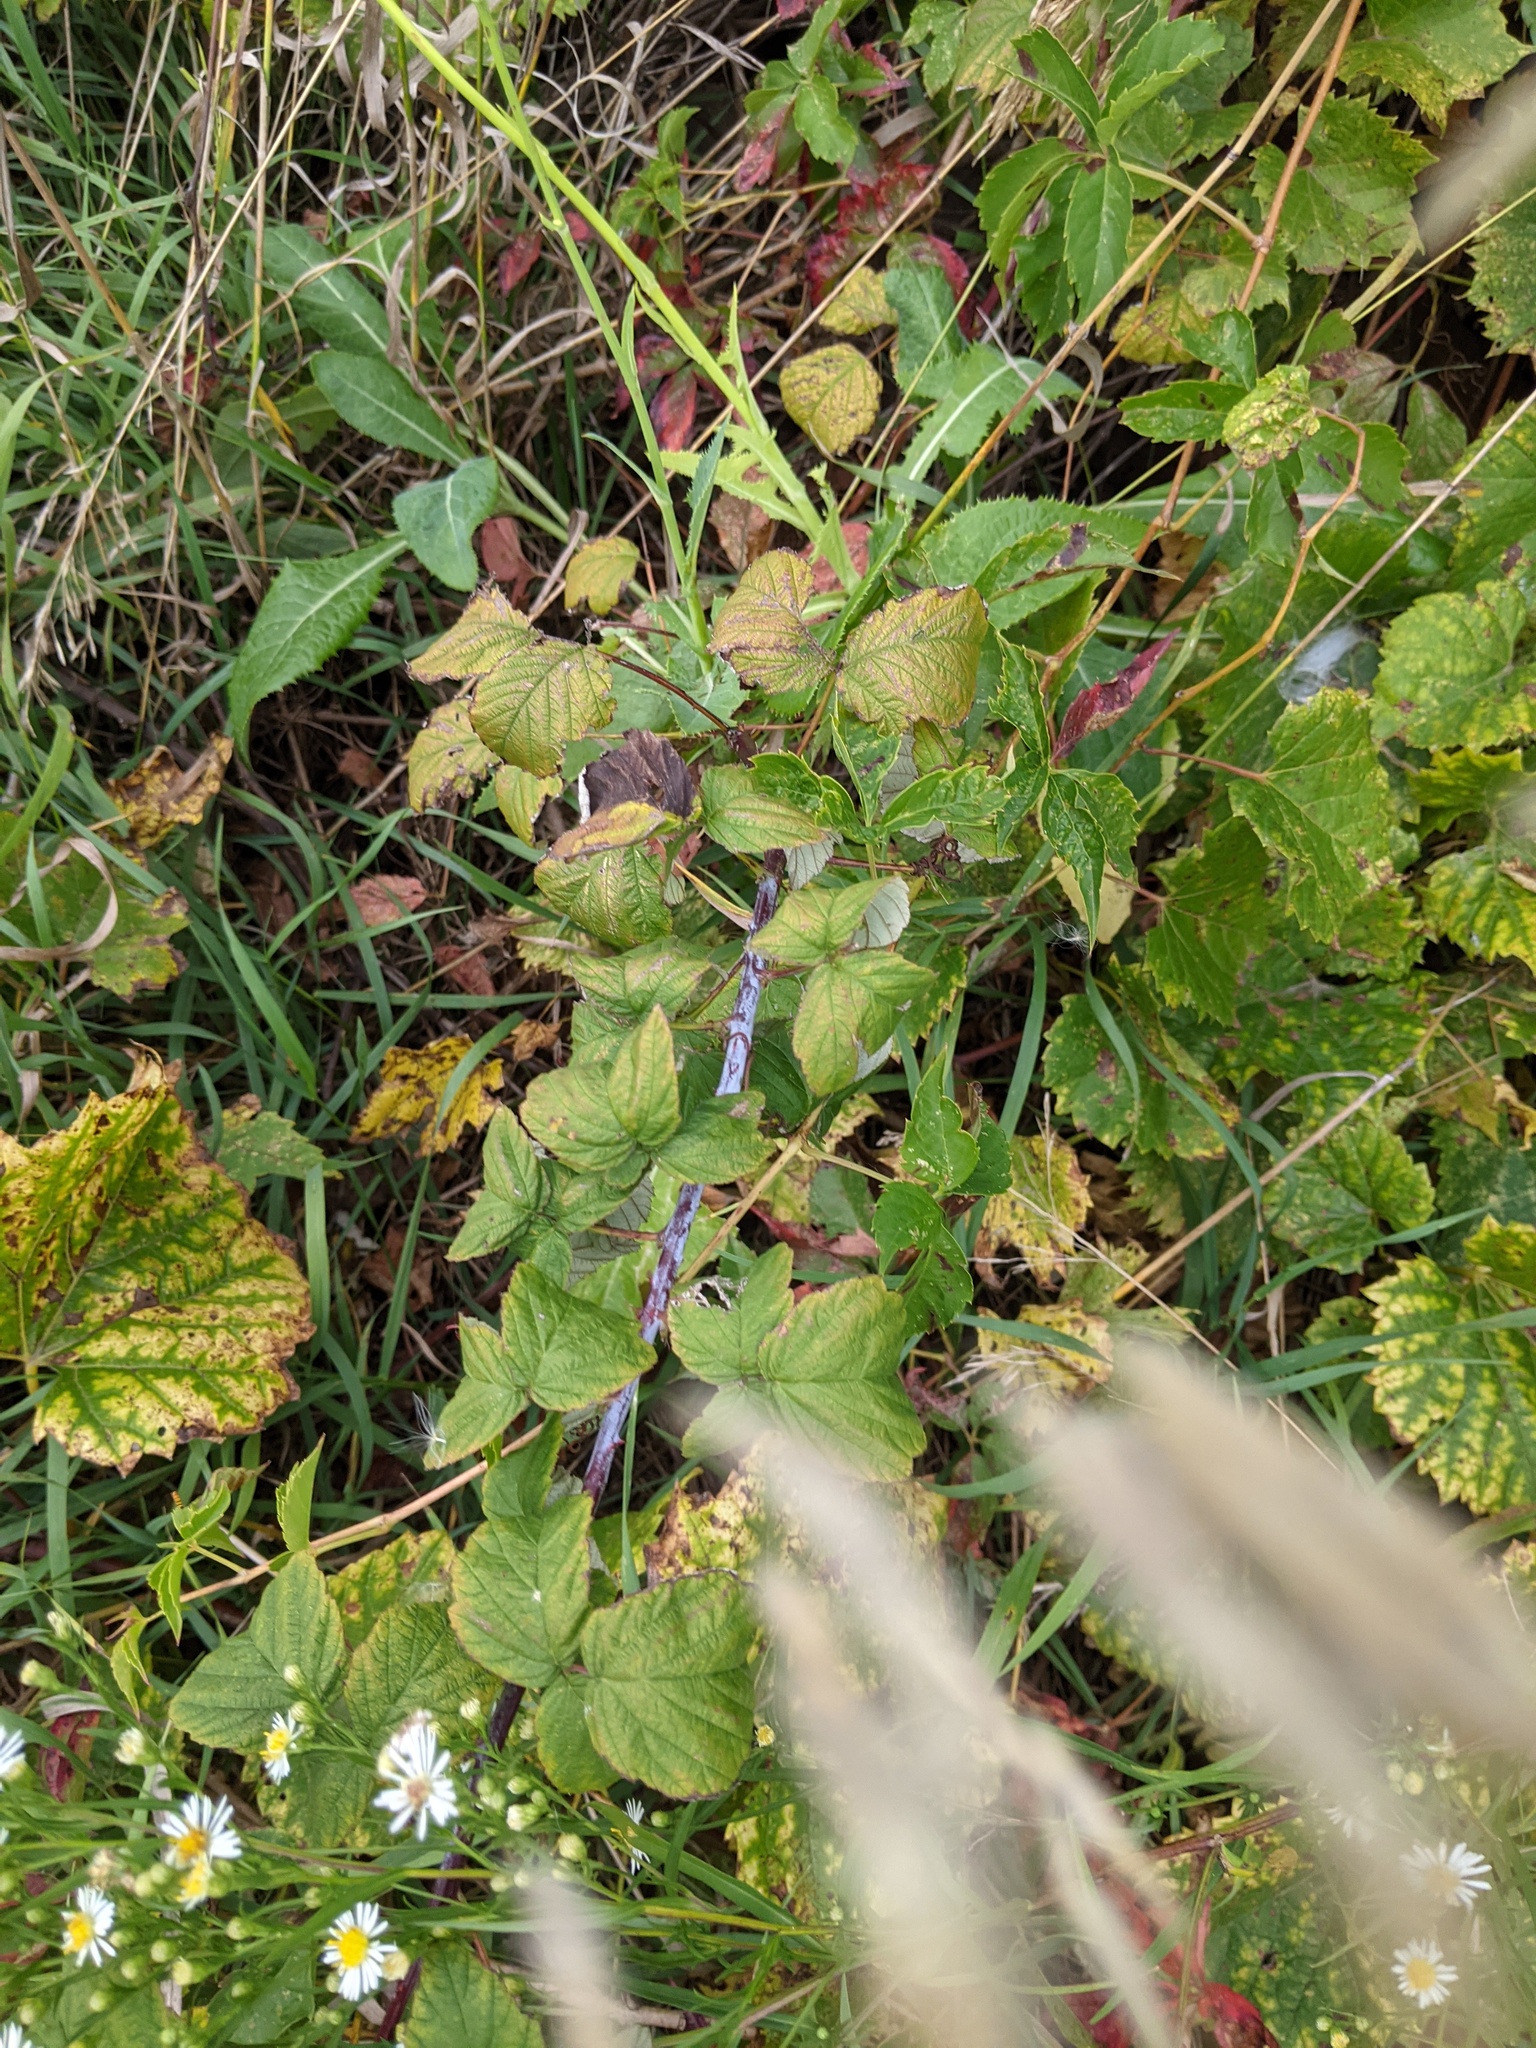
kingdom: Plantae
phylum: Tracheophyta
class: Magnoliopsida
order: Rosales
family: Rosaceae
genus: Rubus
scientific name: Rubus occidentalis
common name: Black raspberry
